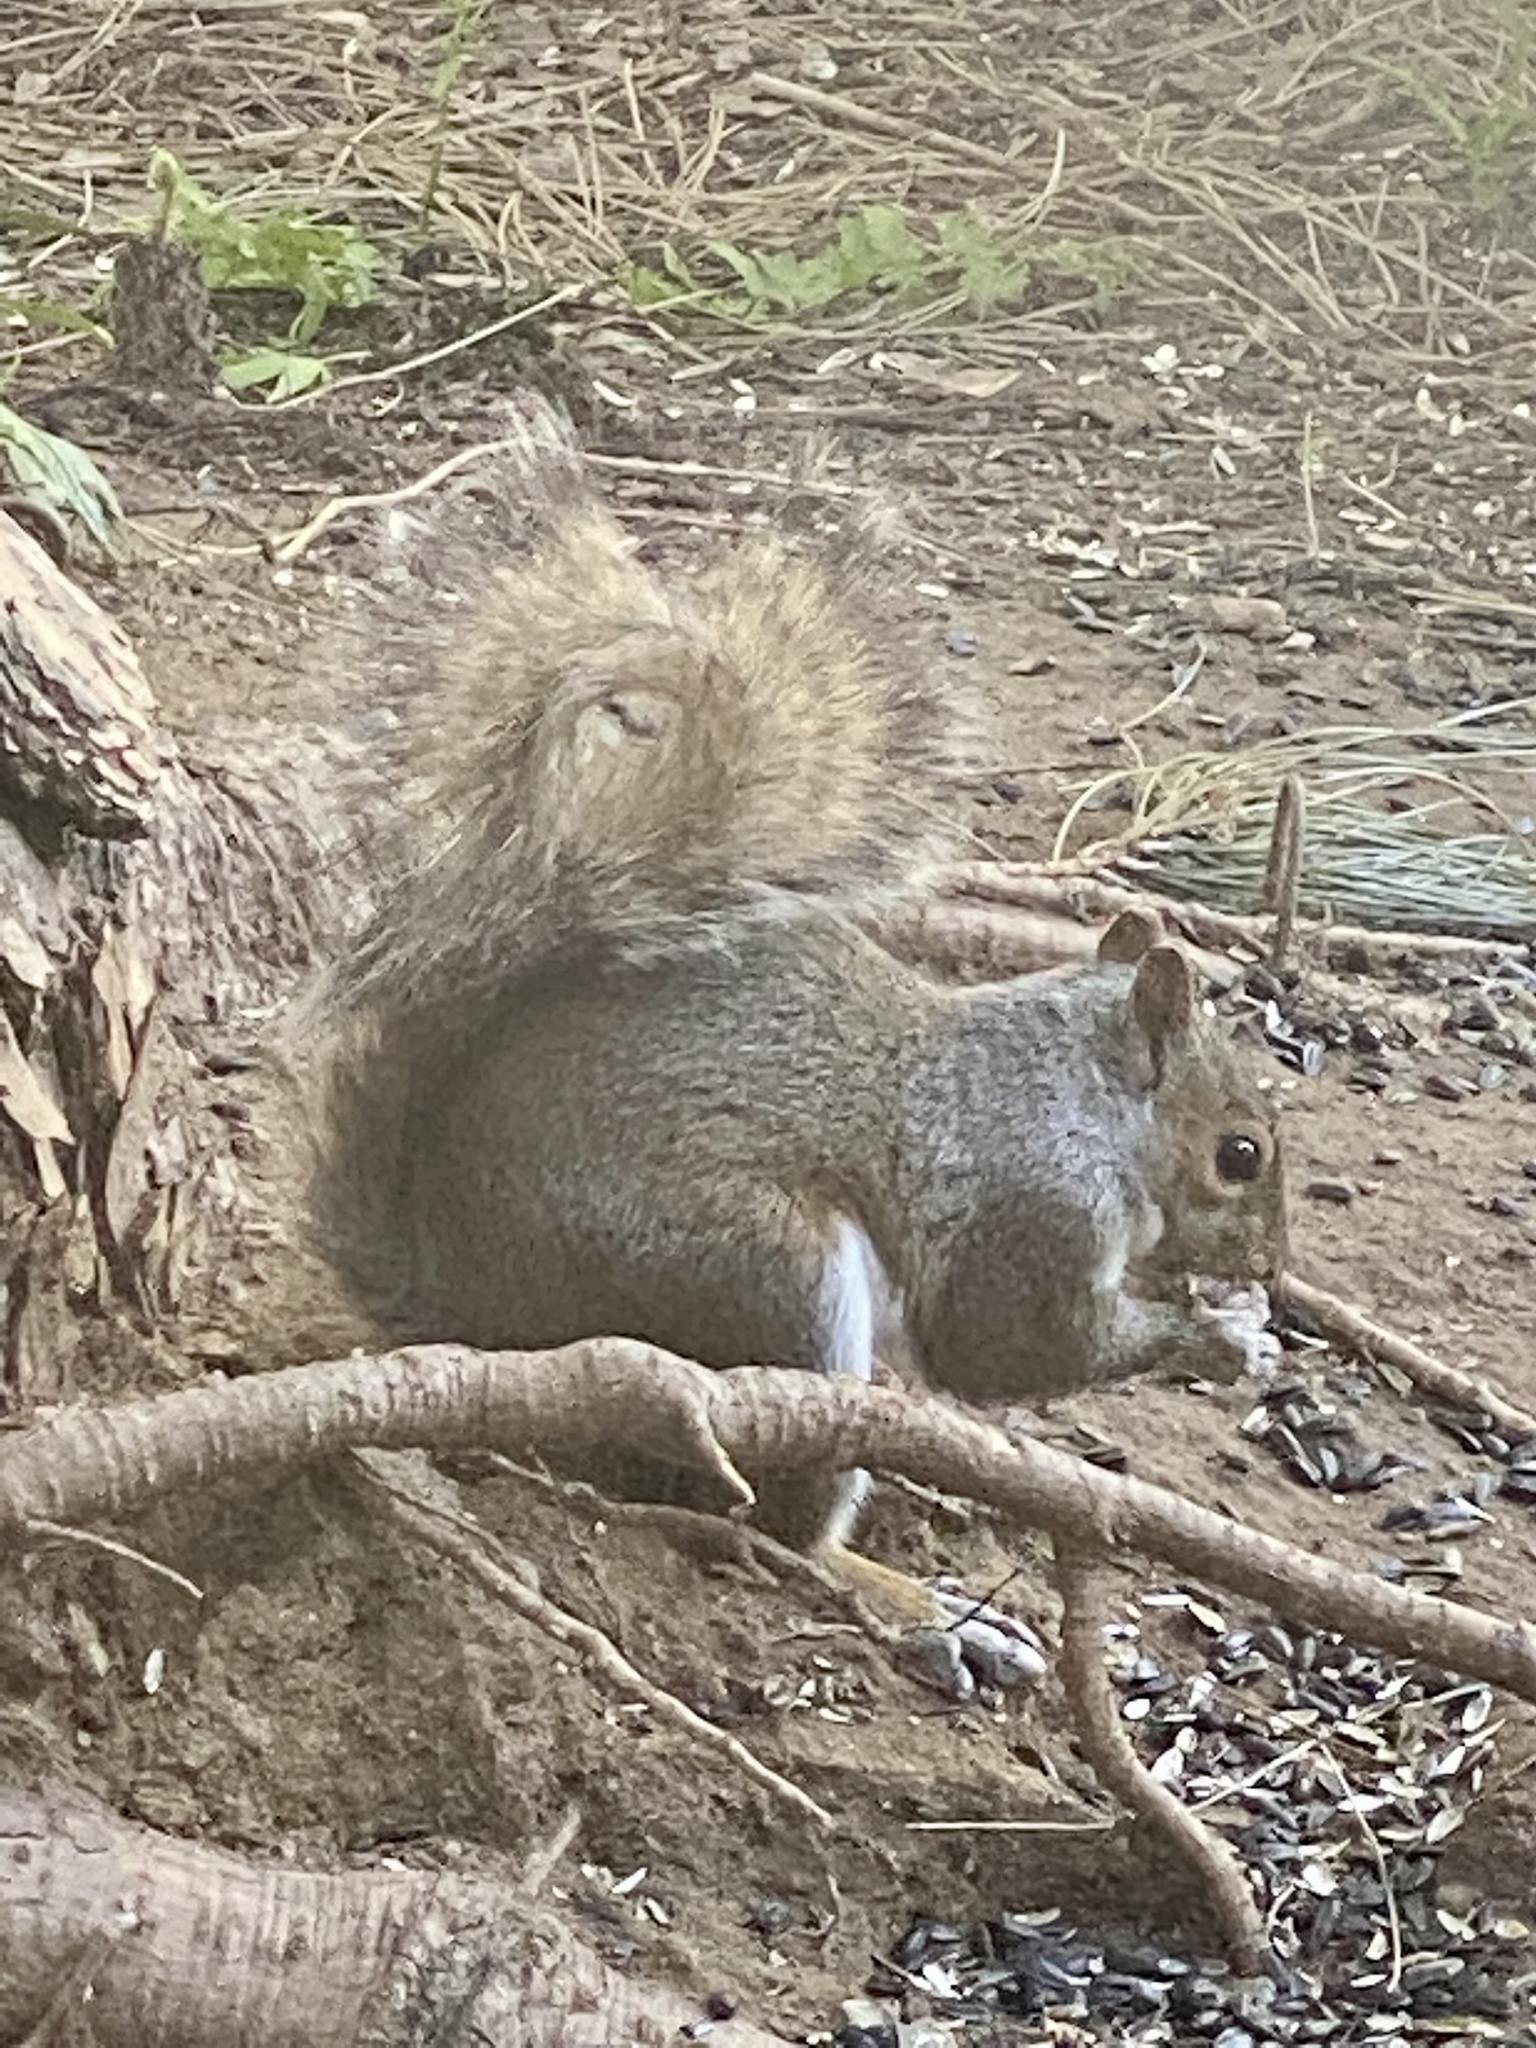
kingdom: Animalia
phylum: Chordata
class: Mammalia
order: Rodentia
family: Sciuridae
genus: Sciurus
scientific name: Sciurus carolinensis
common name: Eastern gray squirrel
